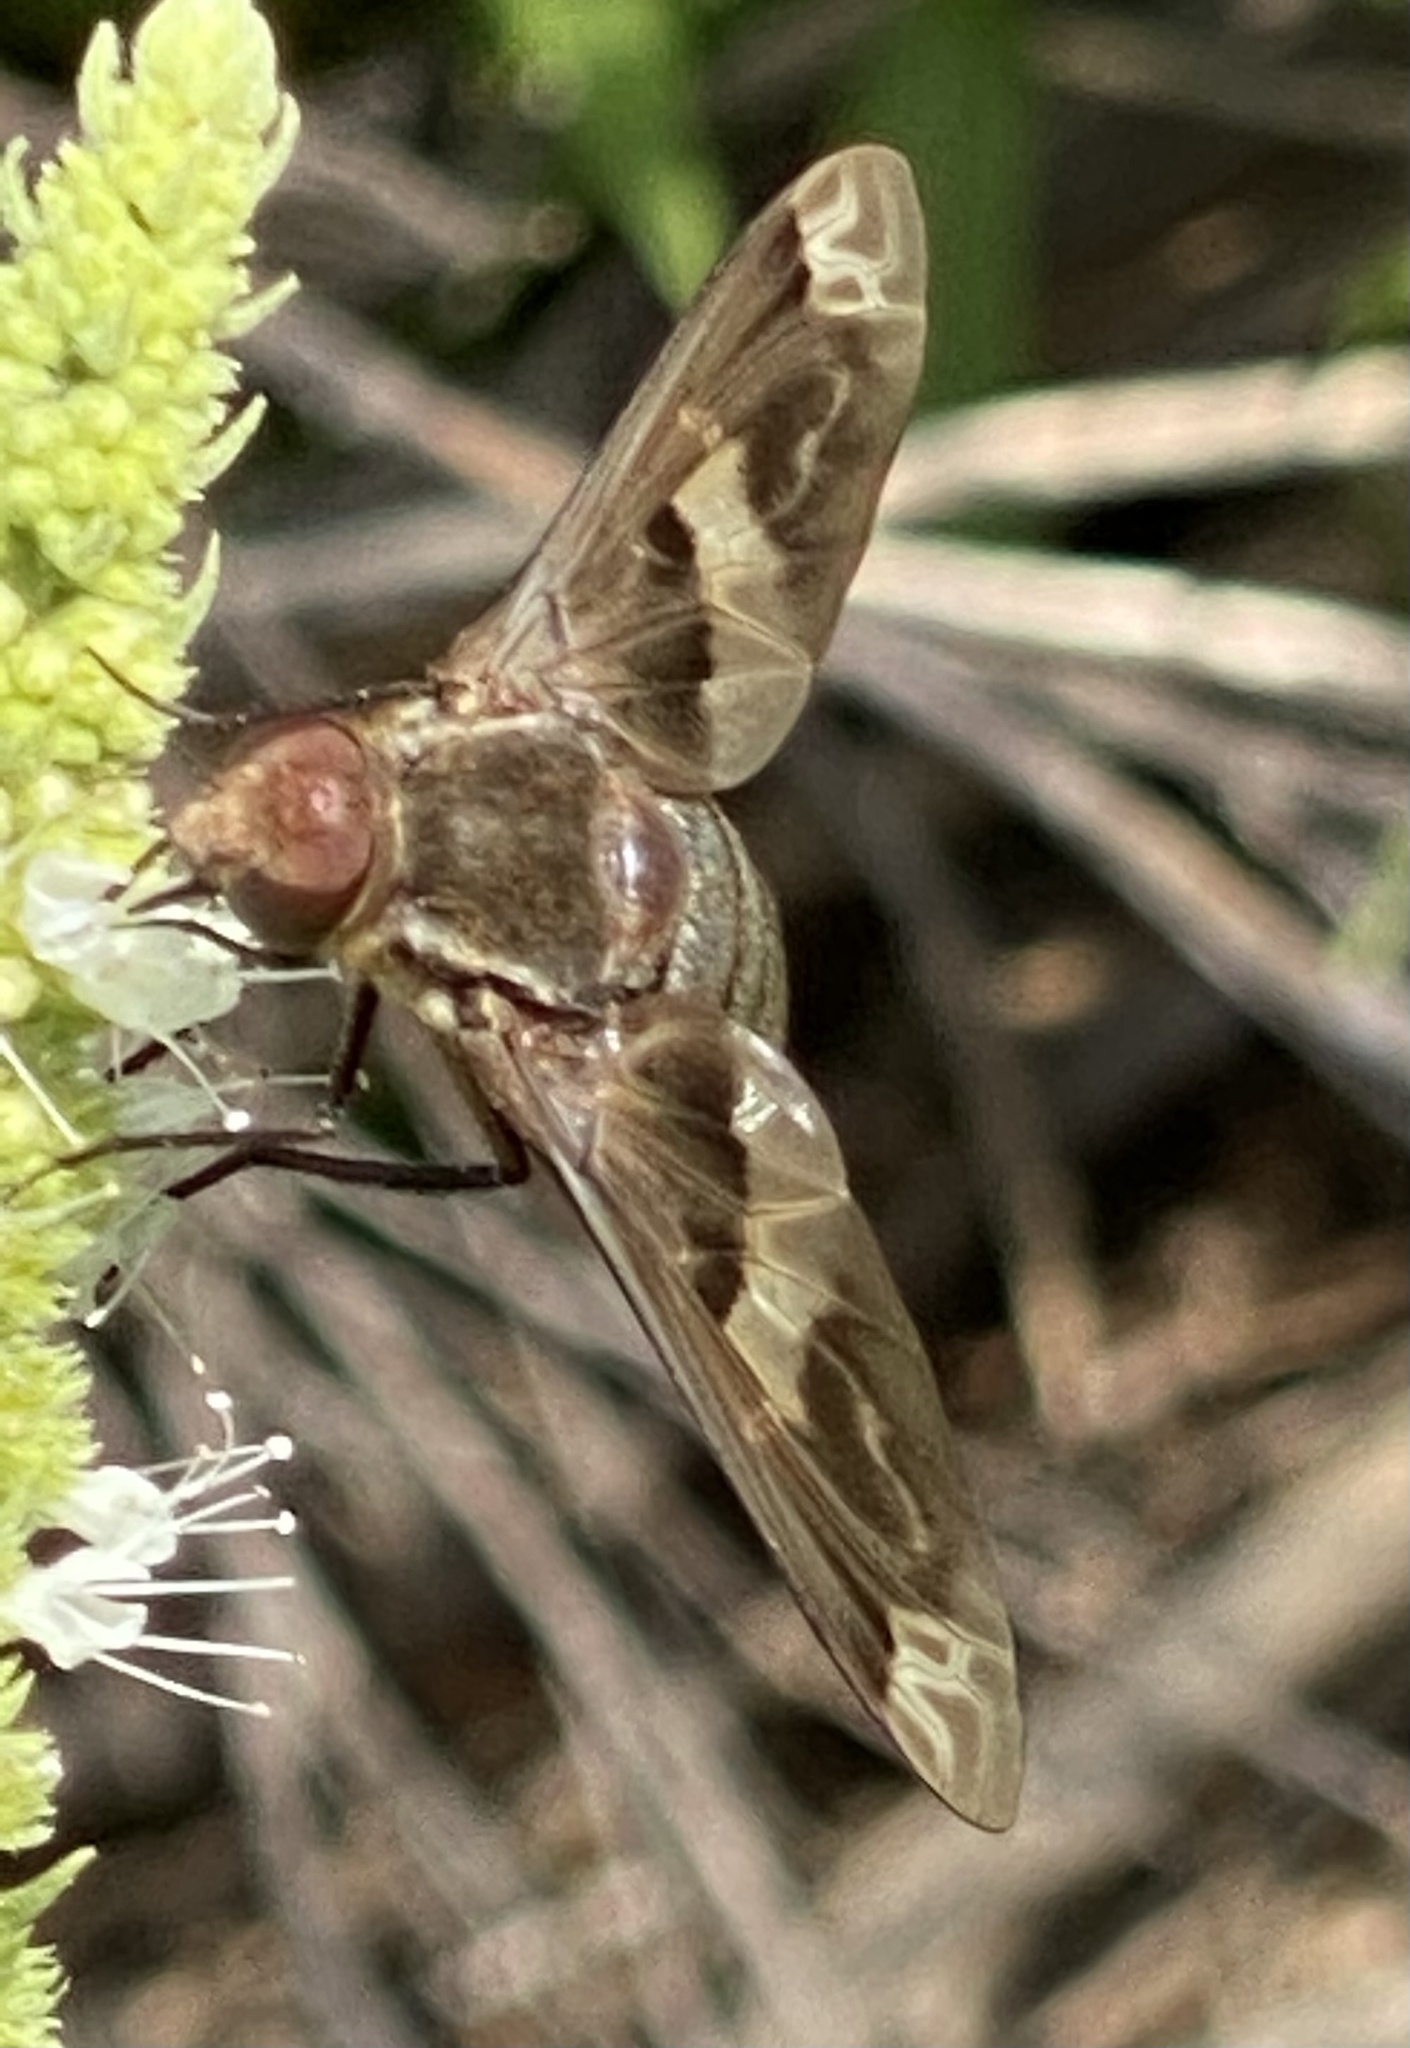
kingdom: Animalia
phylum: Arthropoda
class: Insecta
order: Diptera
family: Bombyliidae
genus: Exoprosopa
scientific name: Exoprosopa strenua
